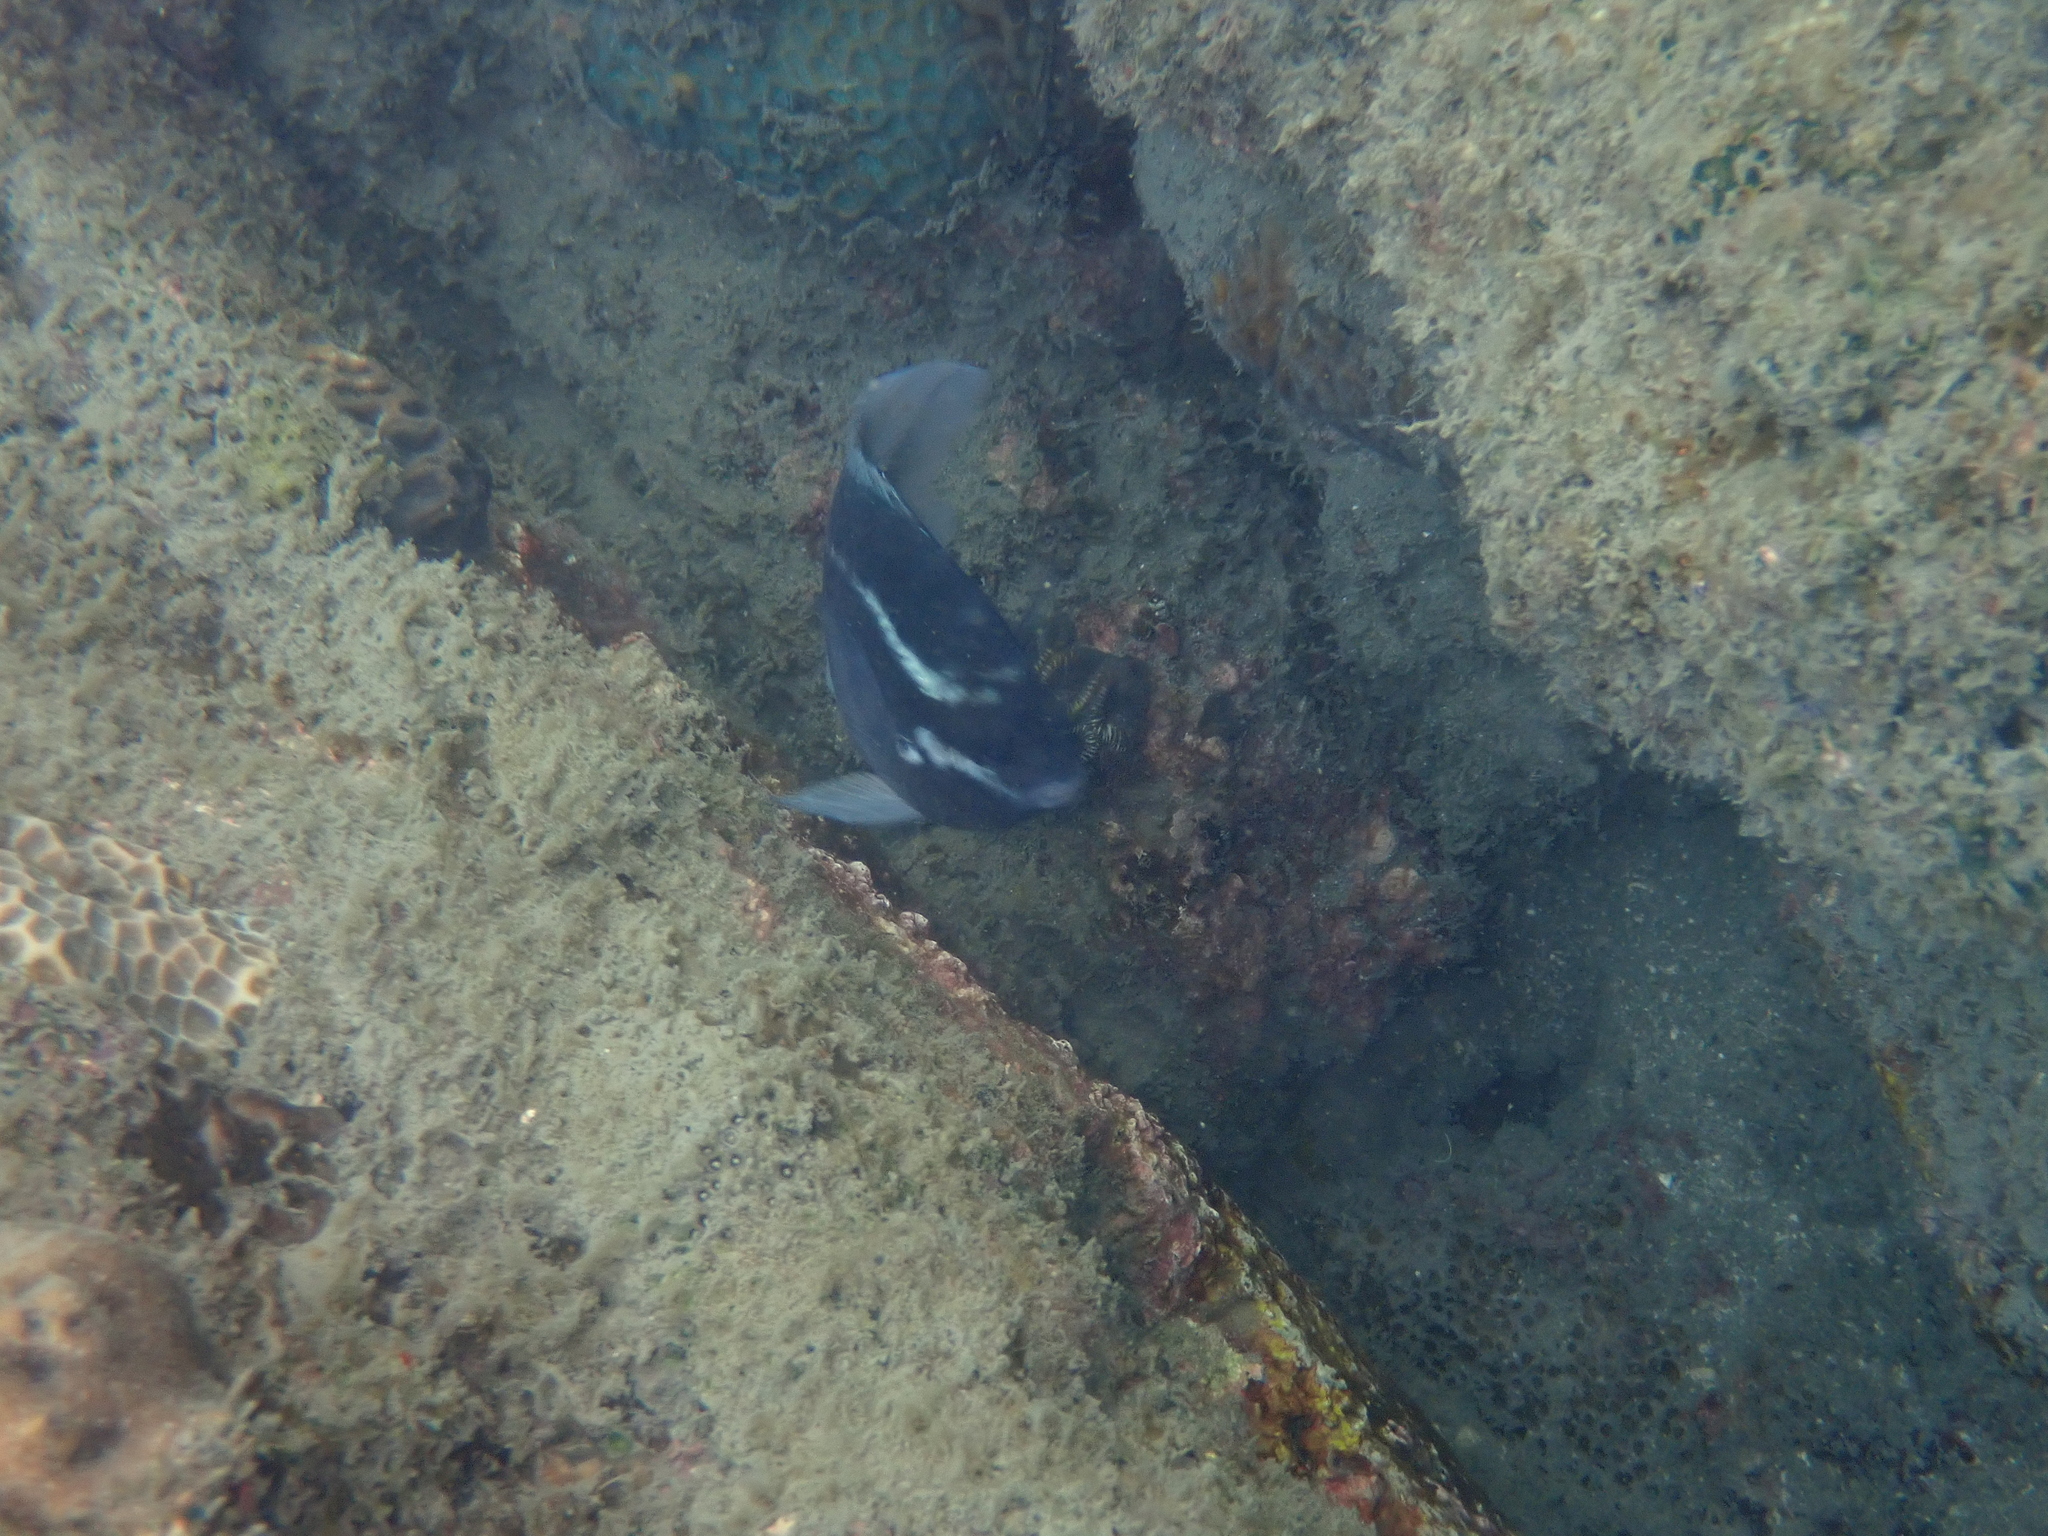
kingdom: Animalia
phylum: Chordata
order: Perciformes
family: Pomacentridae
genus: Abudefduf
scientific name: Abudefduf bengalensis
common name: Bengal sergeant
